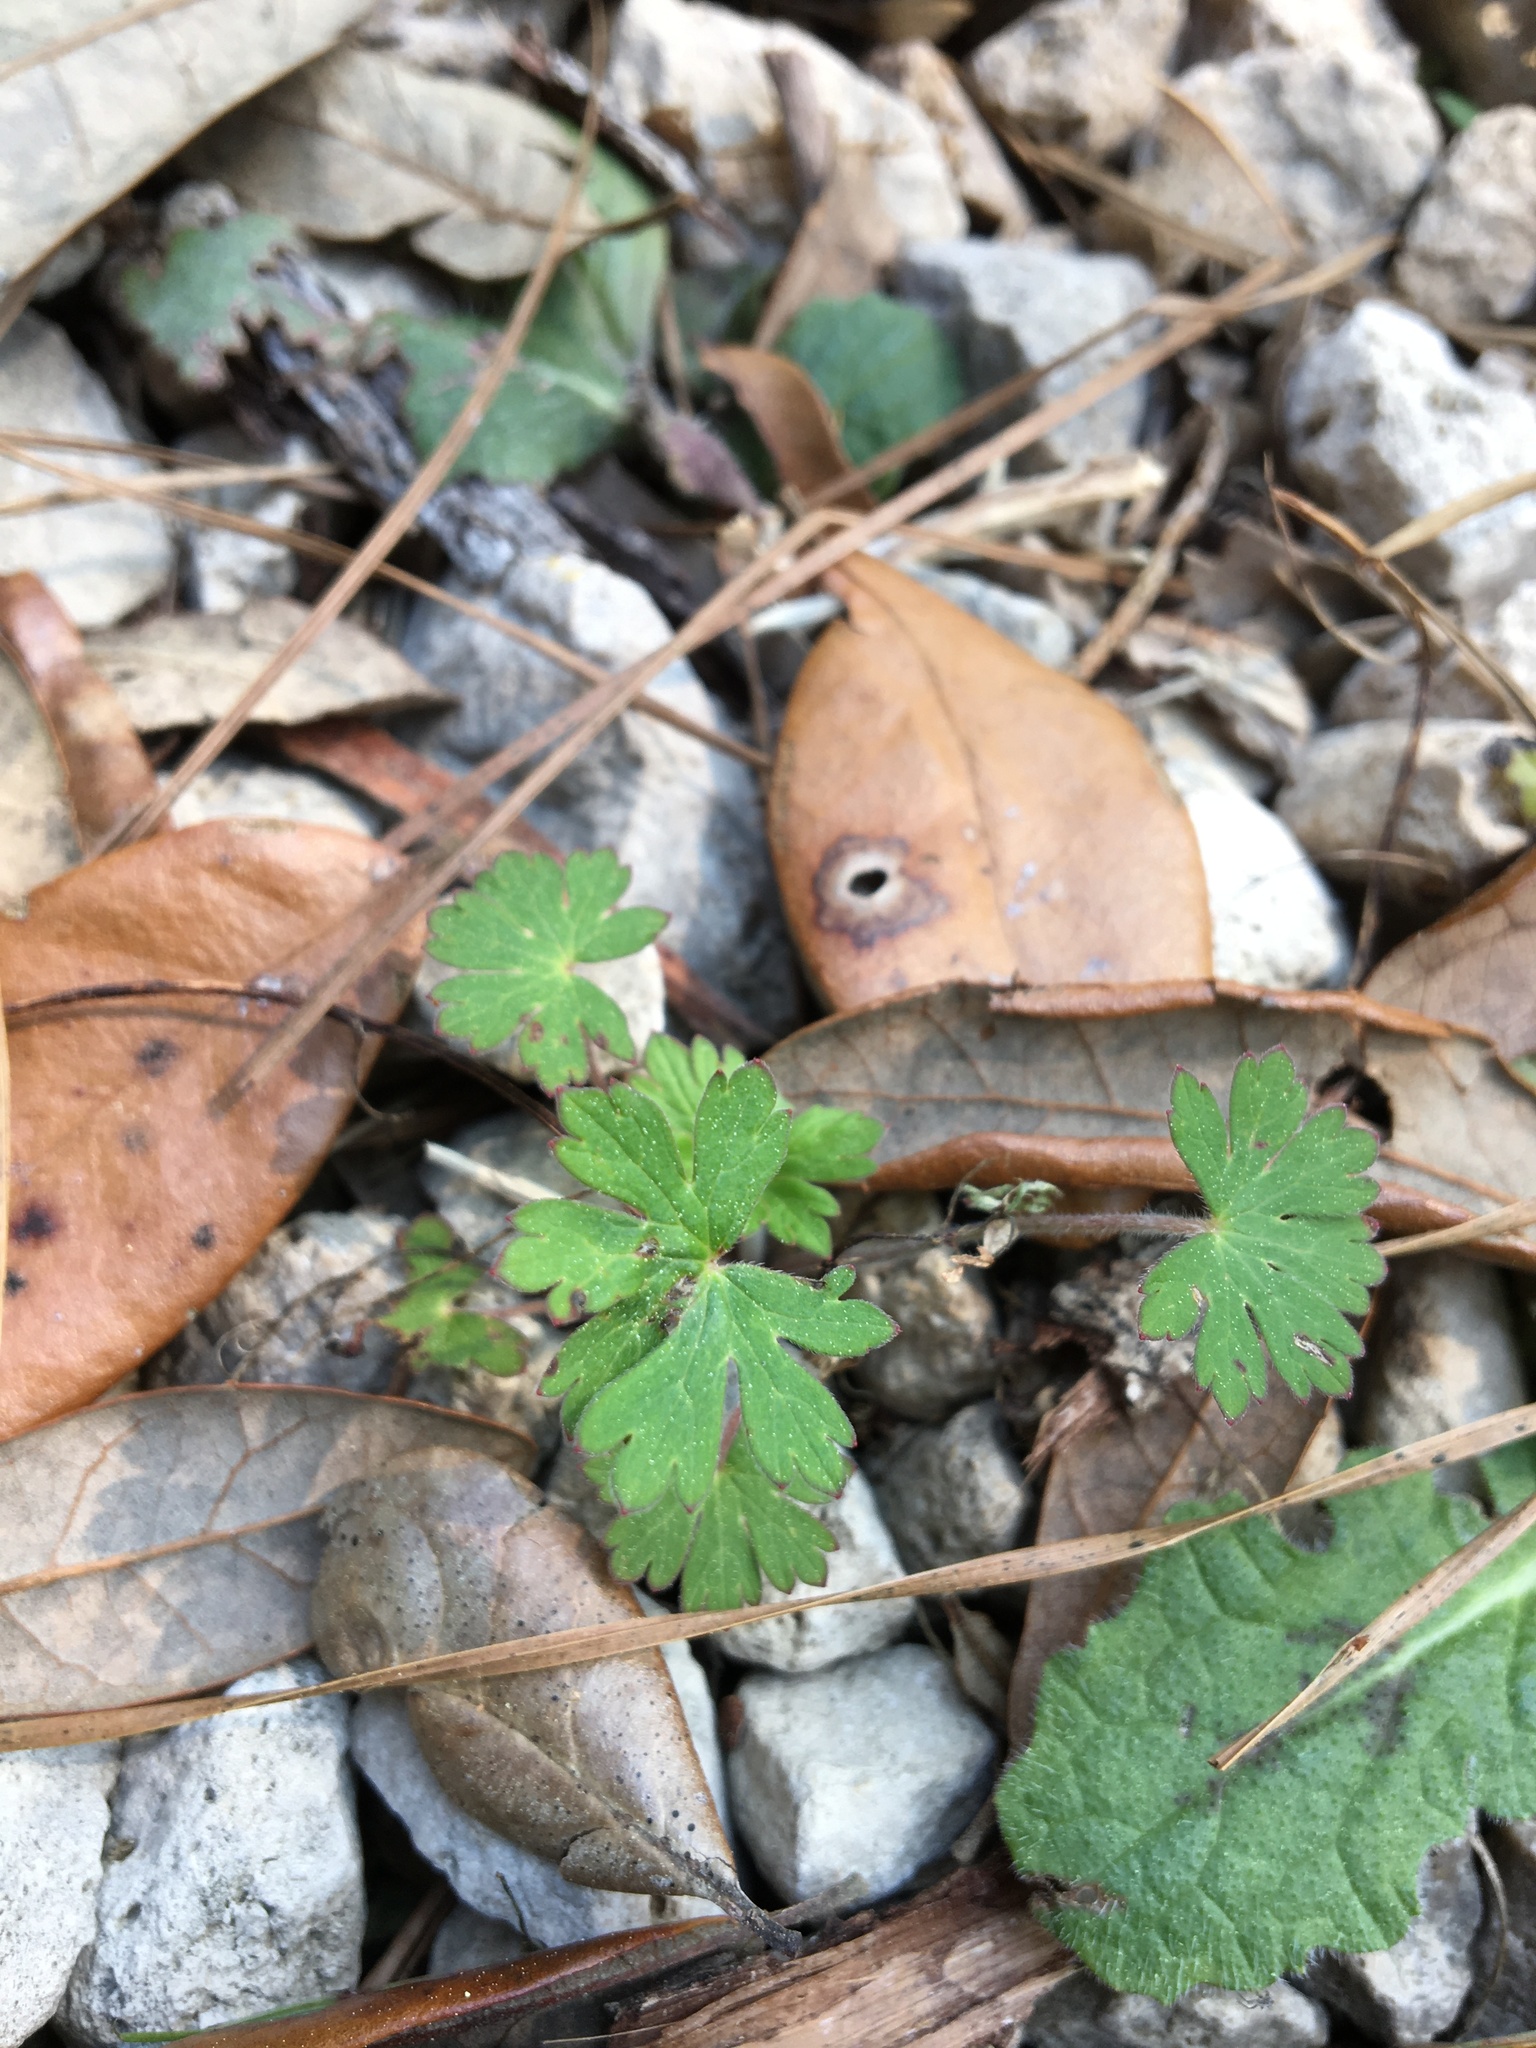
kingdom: Plantae
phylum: Tracheophyta
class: Magnoliopsida
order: Geraniales
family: Geraniaceae
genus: Geranium
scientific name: Geranium carolinianum
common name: Carolina crane's-bill
